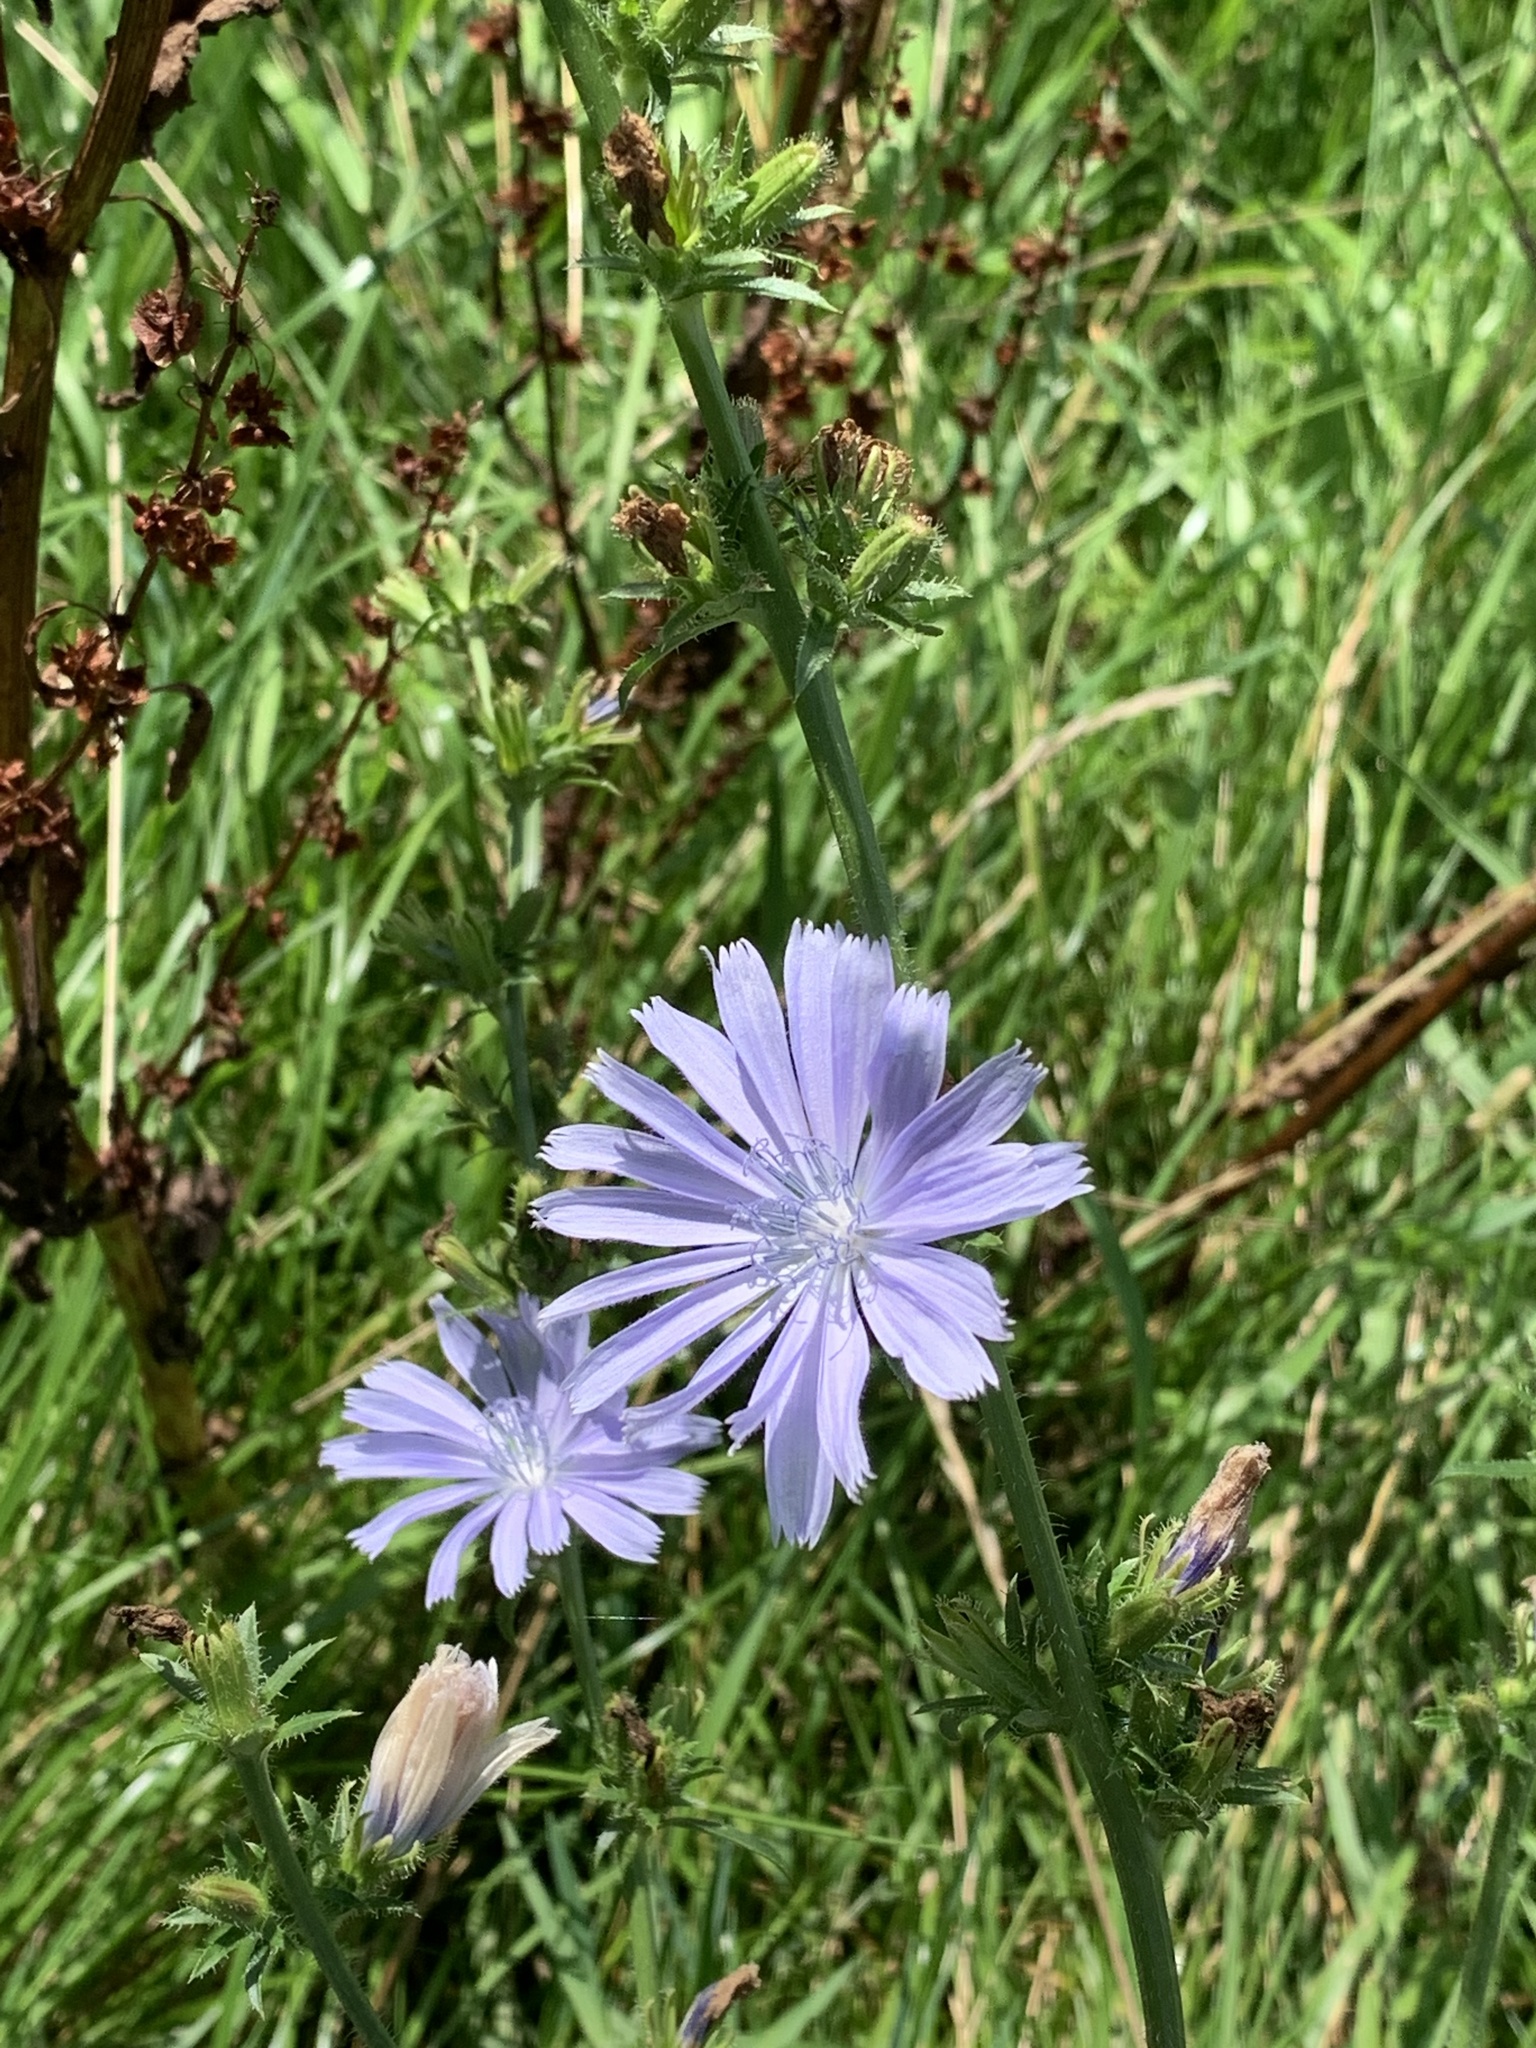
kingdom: Plantae
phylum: Tracheophyta
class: Magnoliopsida
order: Asterales
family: Asteraceae
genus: Cichorium
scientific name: Cichorium intybus
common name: Chicory
